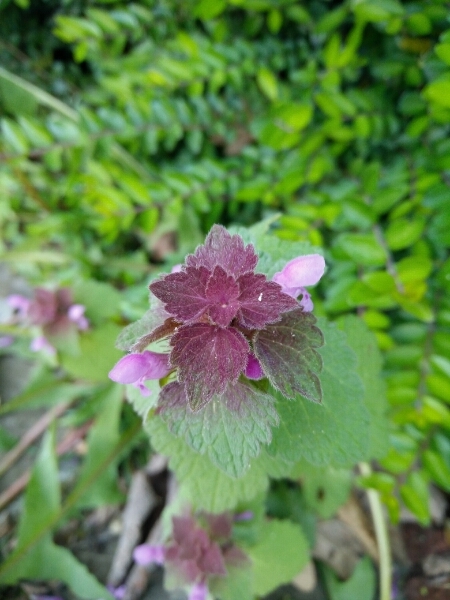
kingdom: Plantae
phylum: Tracheophyta
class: Magnoliopsida
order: Lamiales
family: Lamiaceae
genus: Lamium
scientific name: Lamium purpureum
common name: Red dead-nettle
